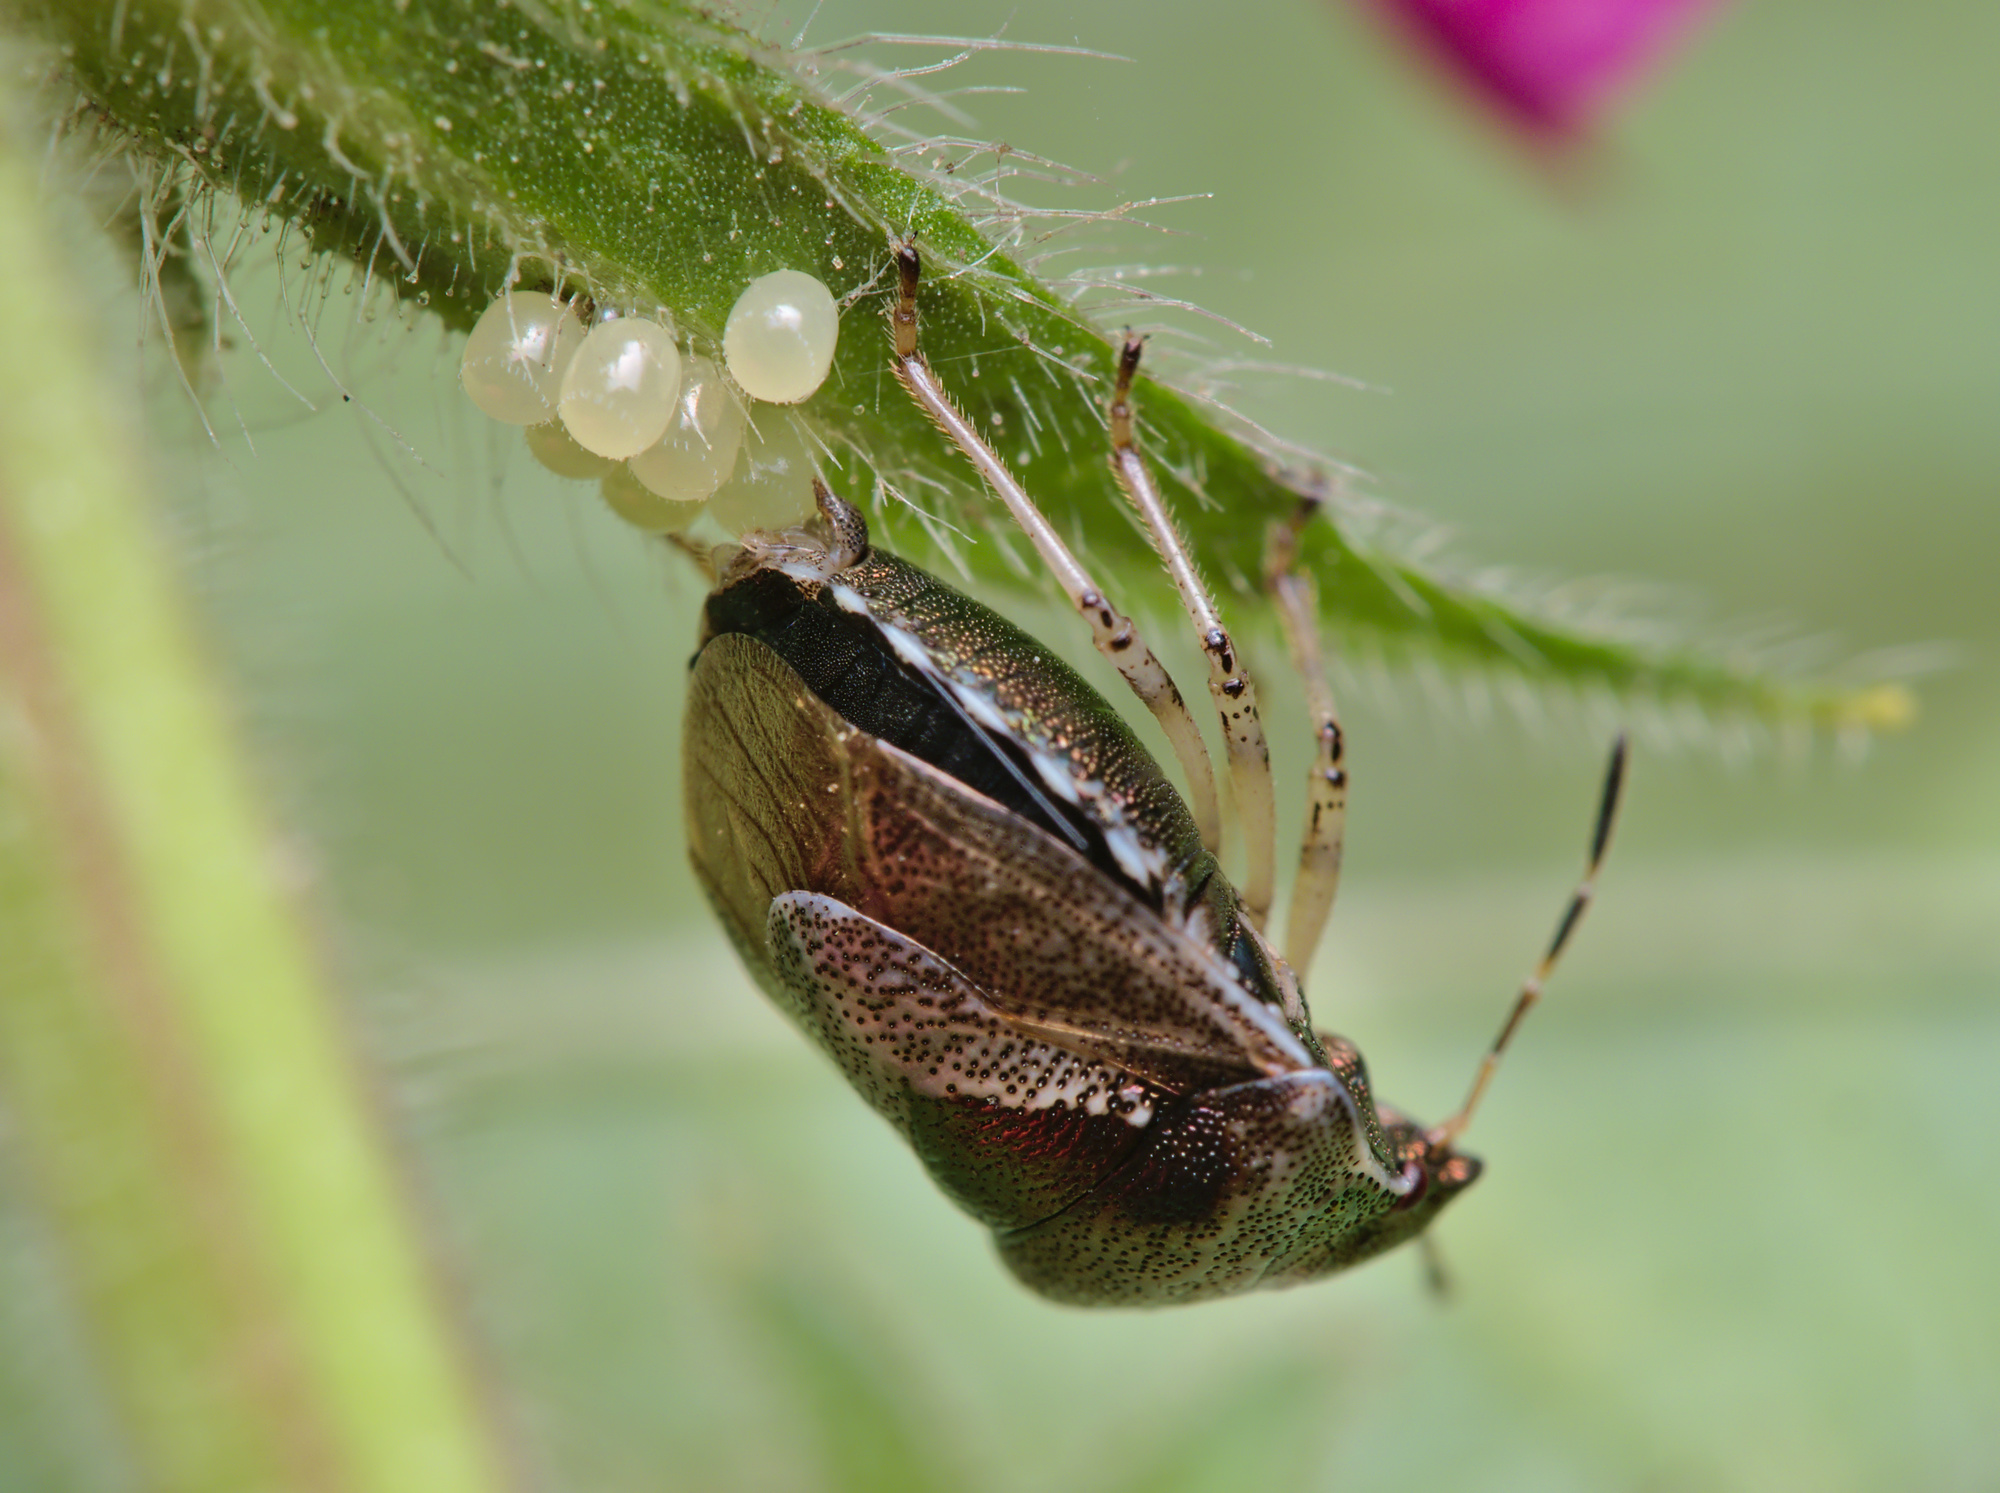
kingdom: Animalia
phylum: Arthropoda
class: Insecta
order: Hemiptera
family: Pentatomidae
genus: Eysarcoris
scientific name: Eysarcoris venustissimus
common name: Woundwort shieldbug
